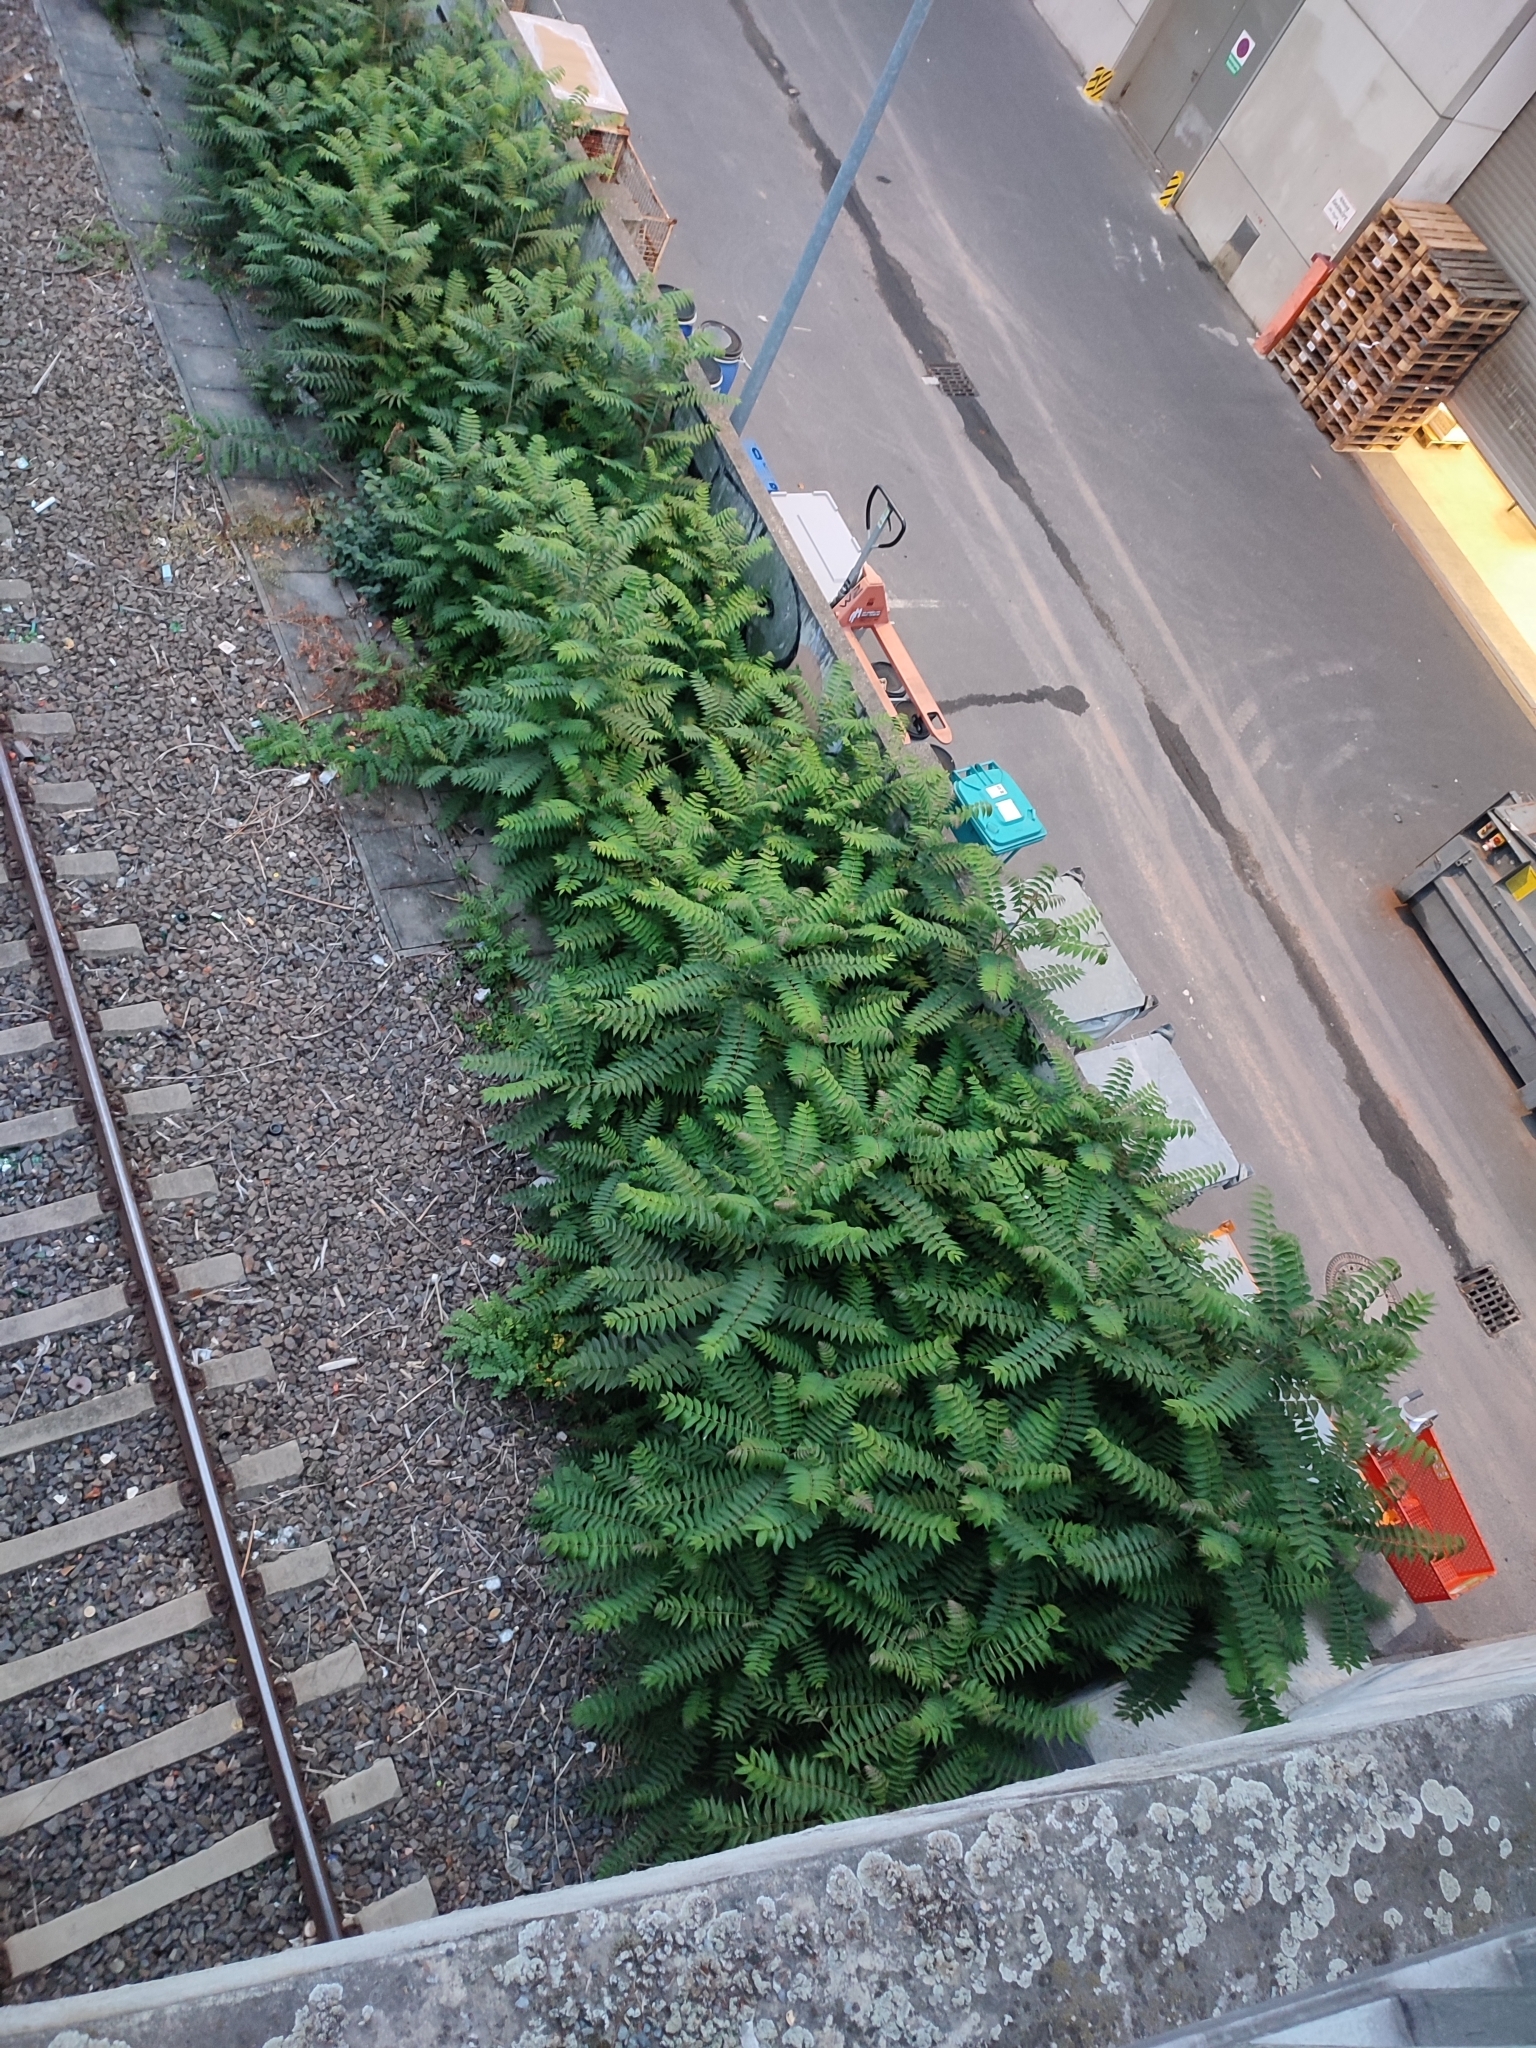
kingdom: Plantae
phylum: Tracheophyta
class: Magnoliopsida
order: Sapindales
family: Simaroubaceae
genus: Ailanthus
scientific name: Ailanthus altissima
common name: Tree-of-heaven
